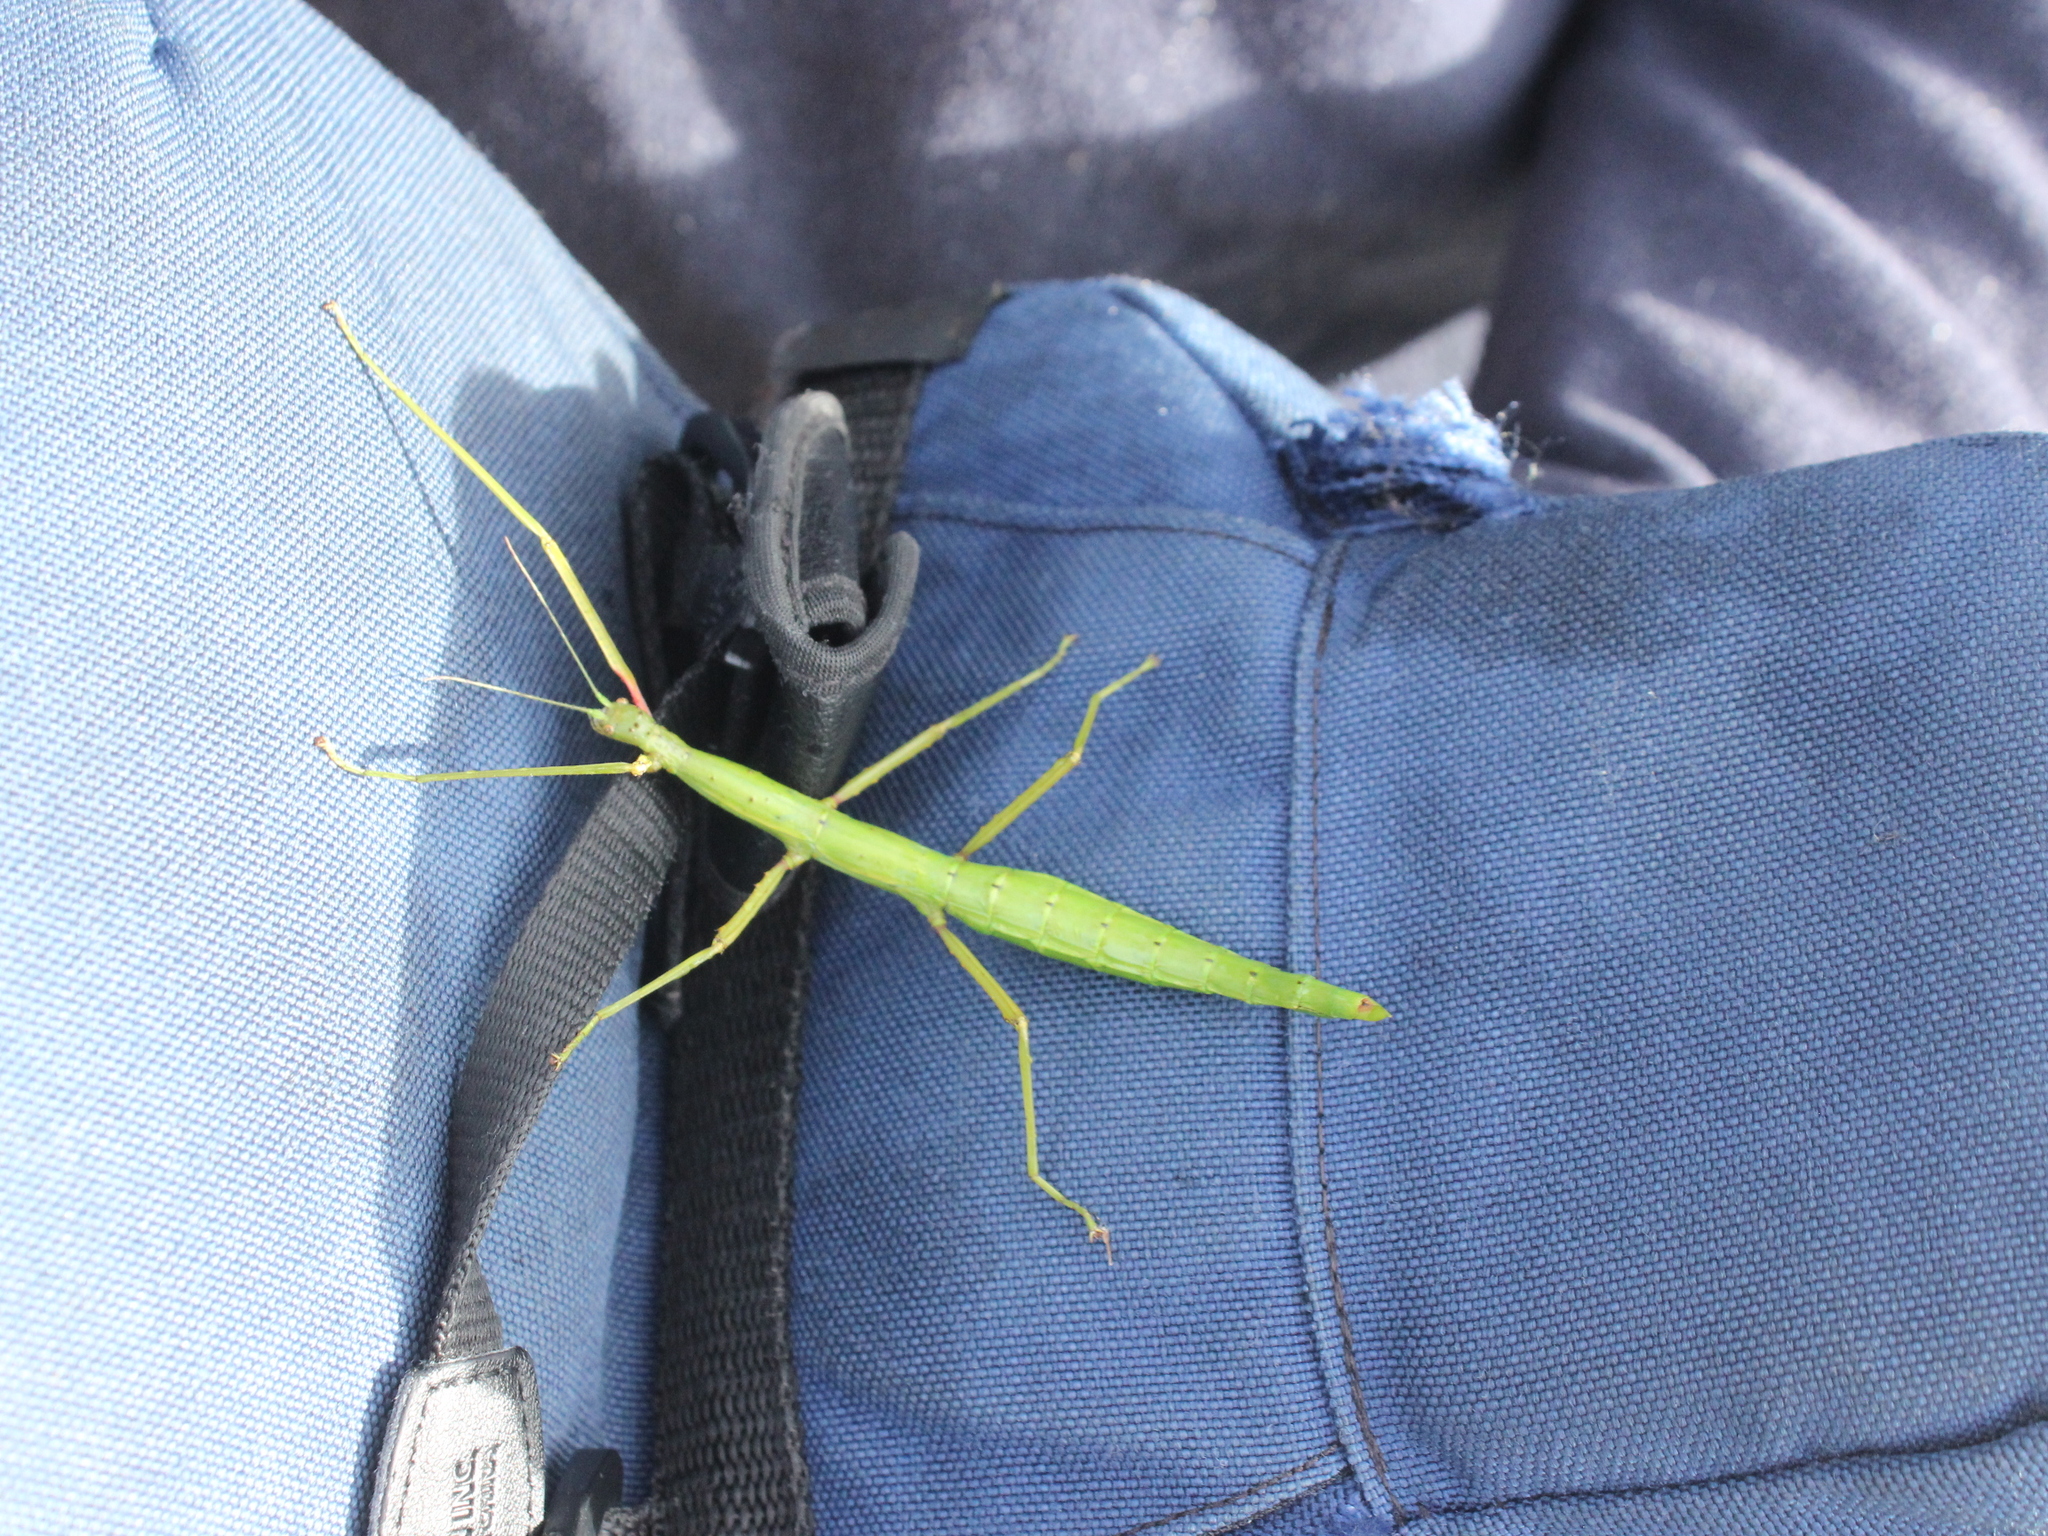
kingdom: Animalia
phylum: Arthropoda
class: Insecta
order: Phasmida
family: Phasmatidae
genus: Clitarchus
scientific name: Clitarchus hookeri
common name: Smooth stick insect
